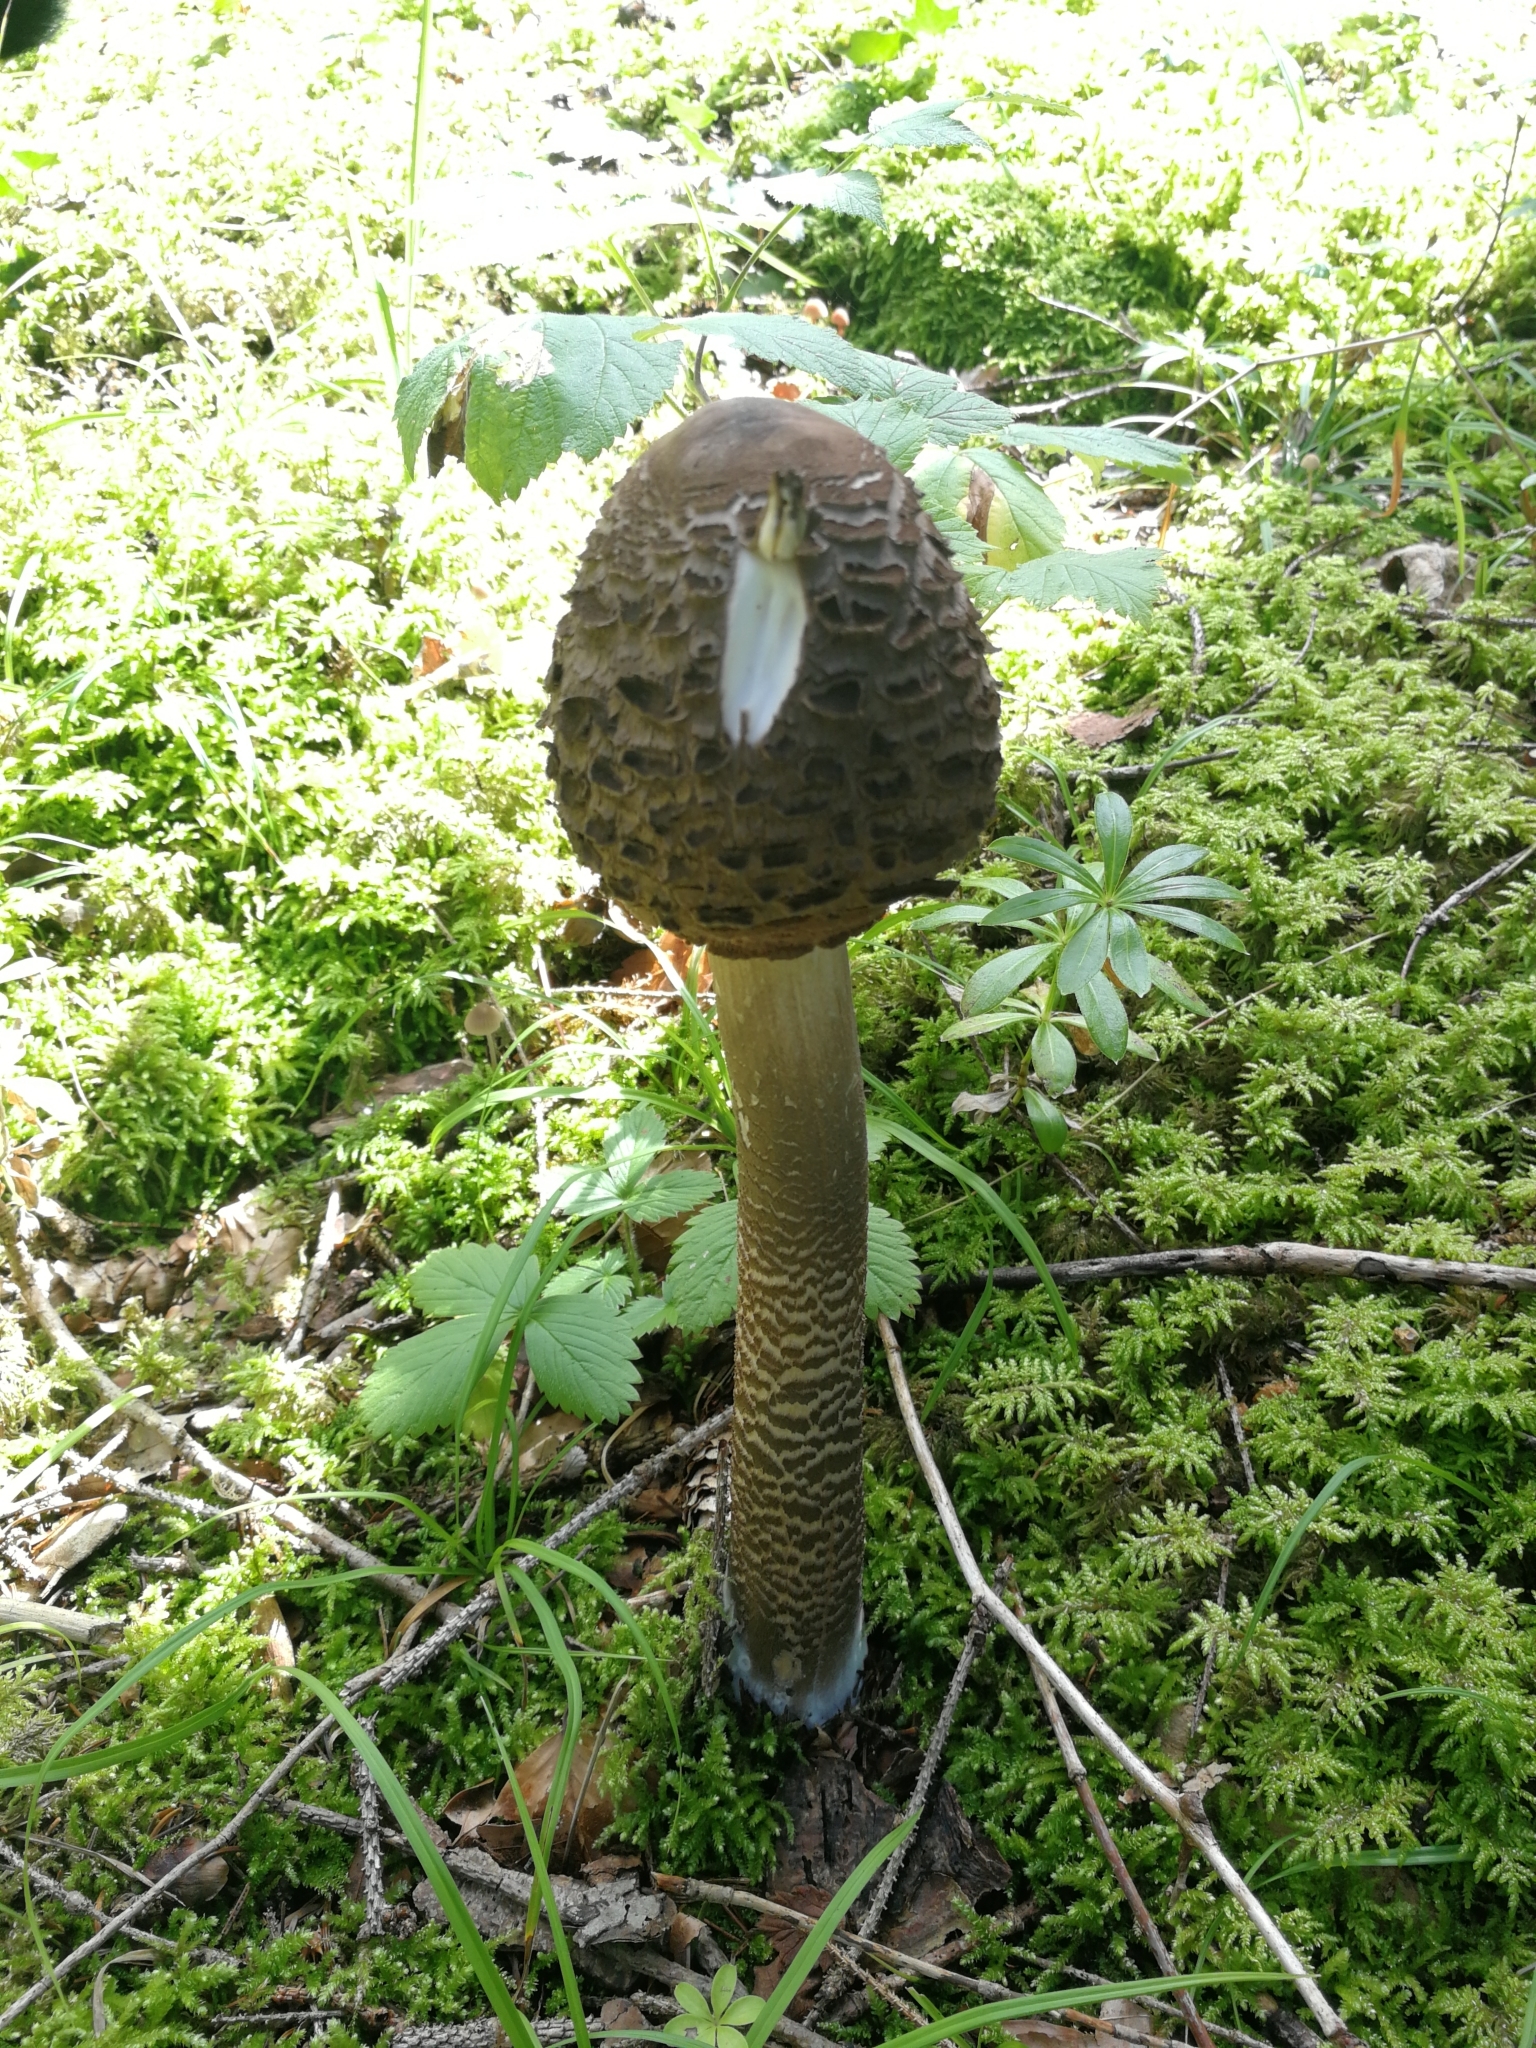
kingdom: Fungi
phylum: Basidiomycota
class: Agaricomycetes
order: Agaricales
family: Agaricaceae
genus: Macrolepiota
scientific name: Macrolepiota procera
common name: Parasol
